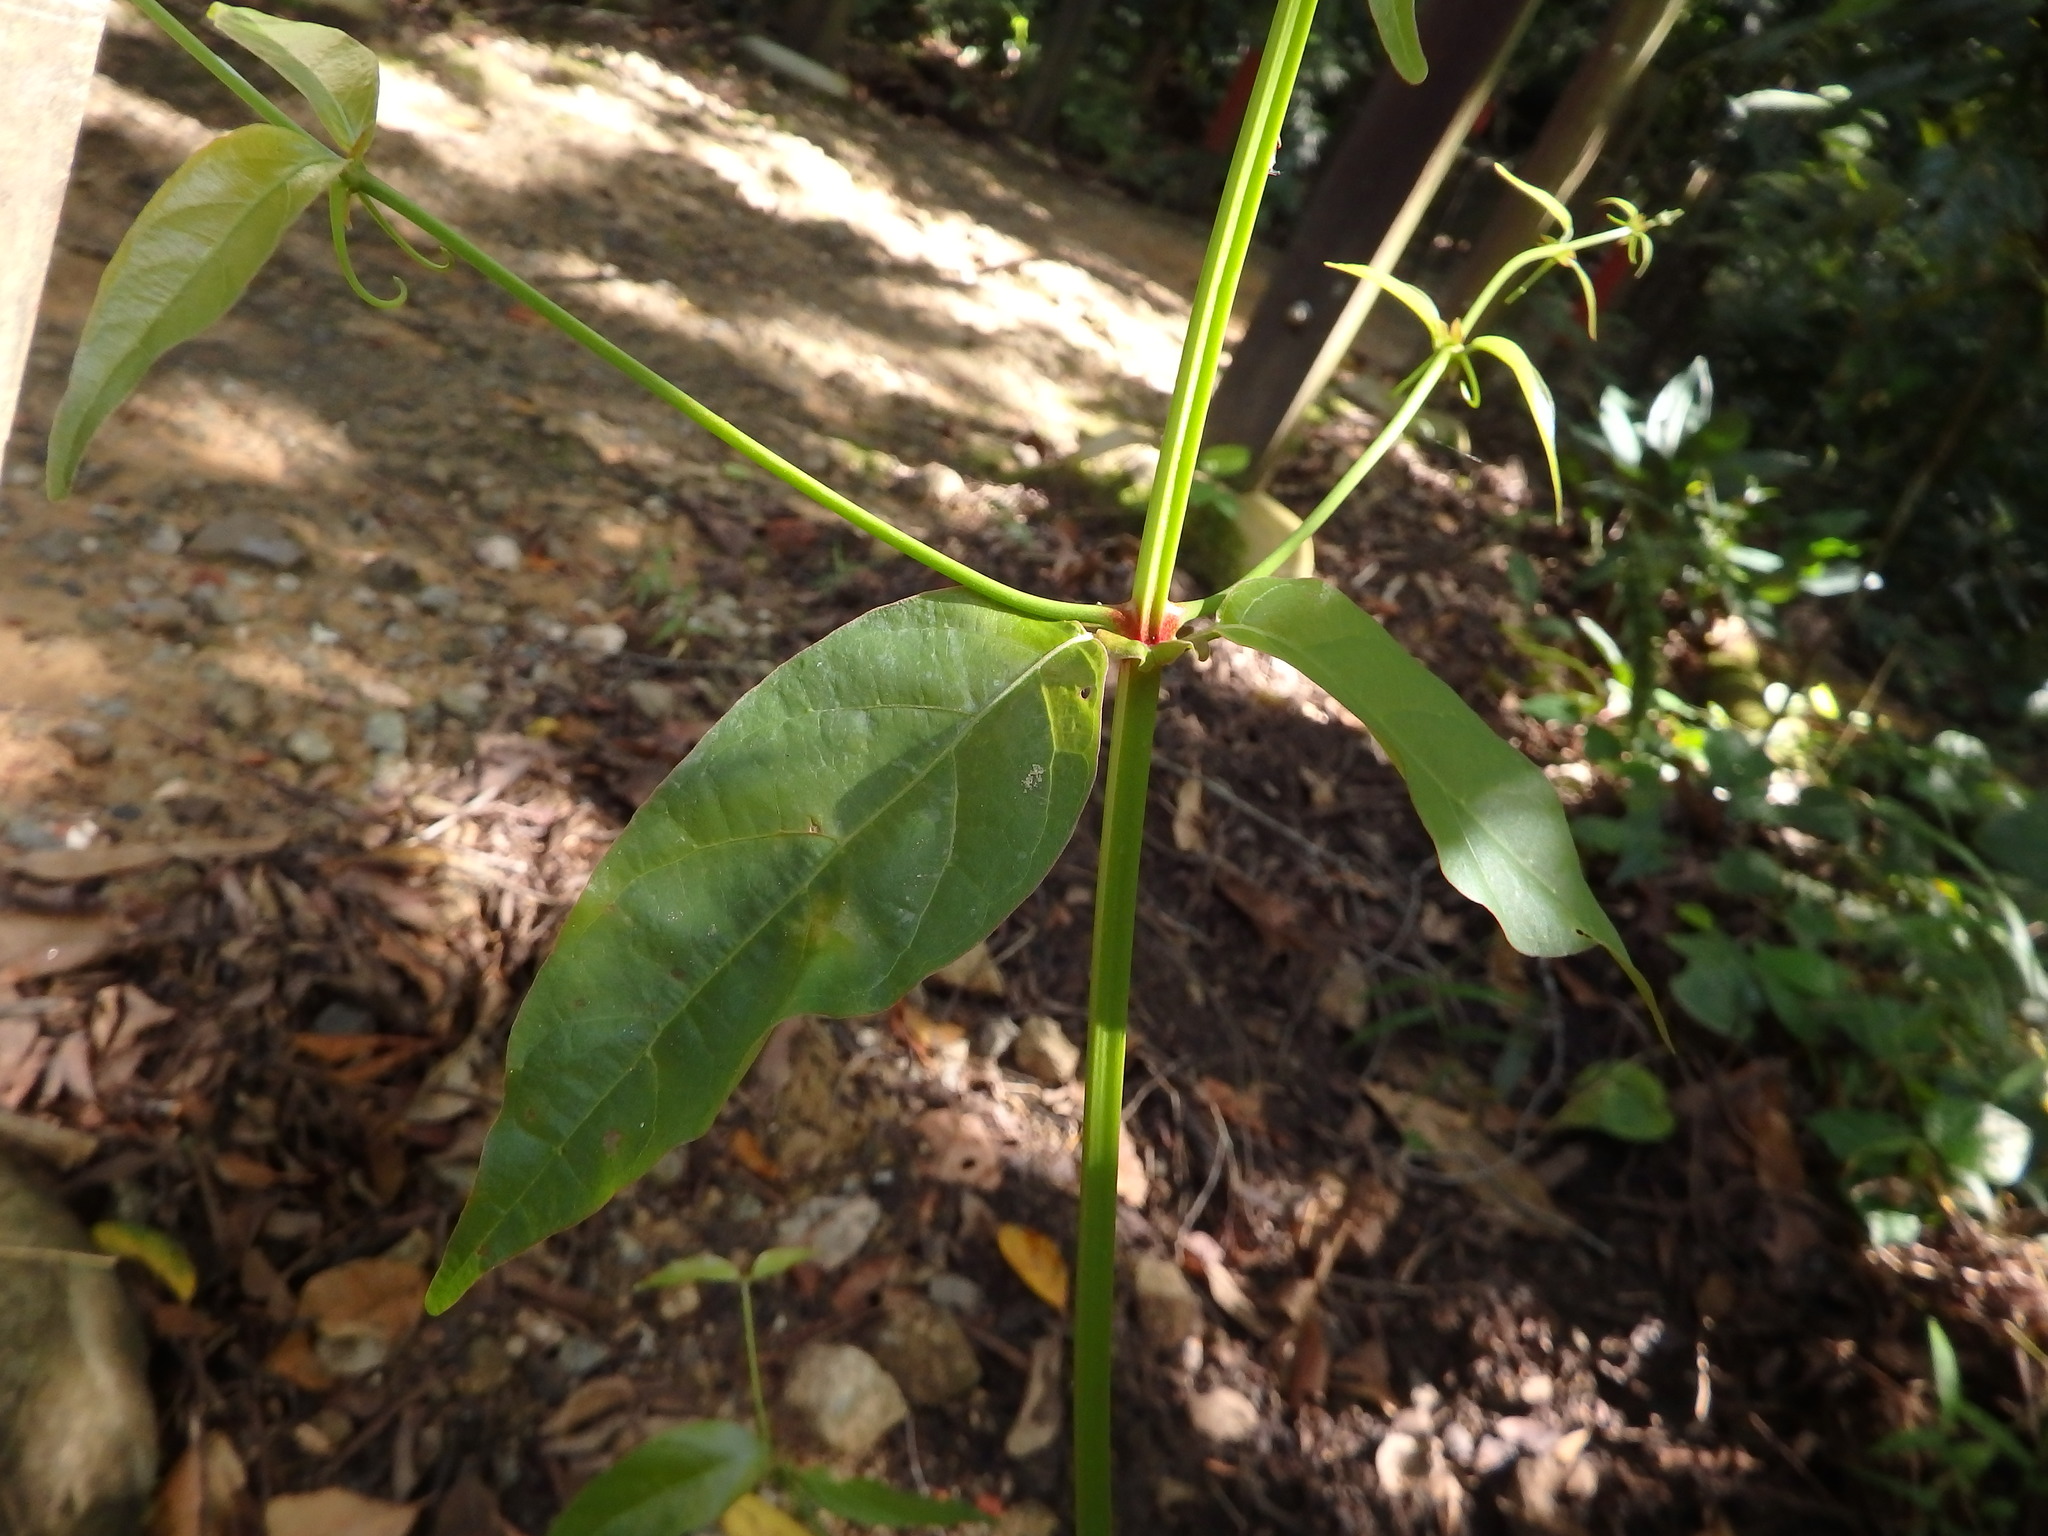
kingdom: Plantae
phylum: Tracheophyta
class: Magnoliopsida
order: Gentianales
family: Rubiaceae
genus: Uncaria
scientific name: Uncaria gambir
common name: Pale catechu
